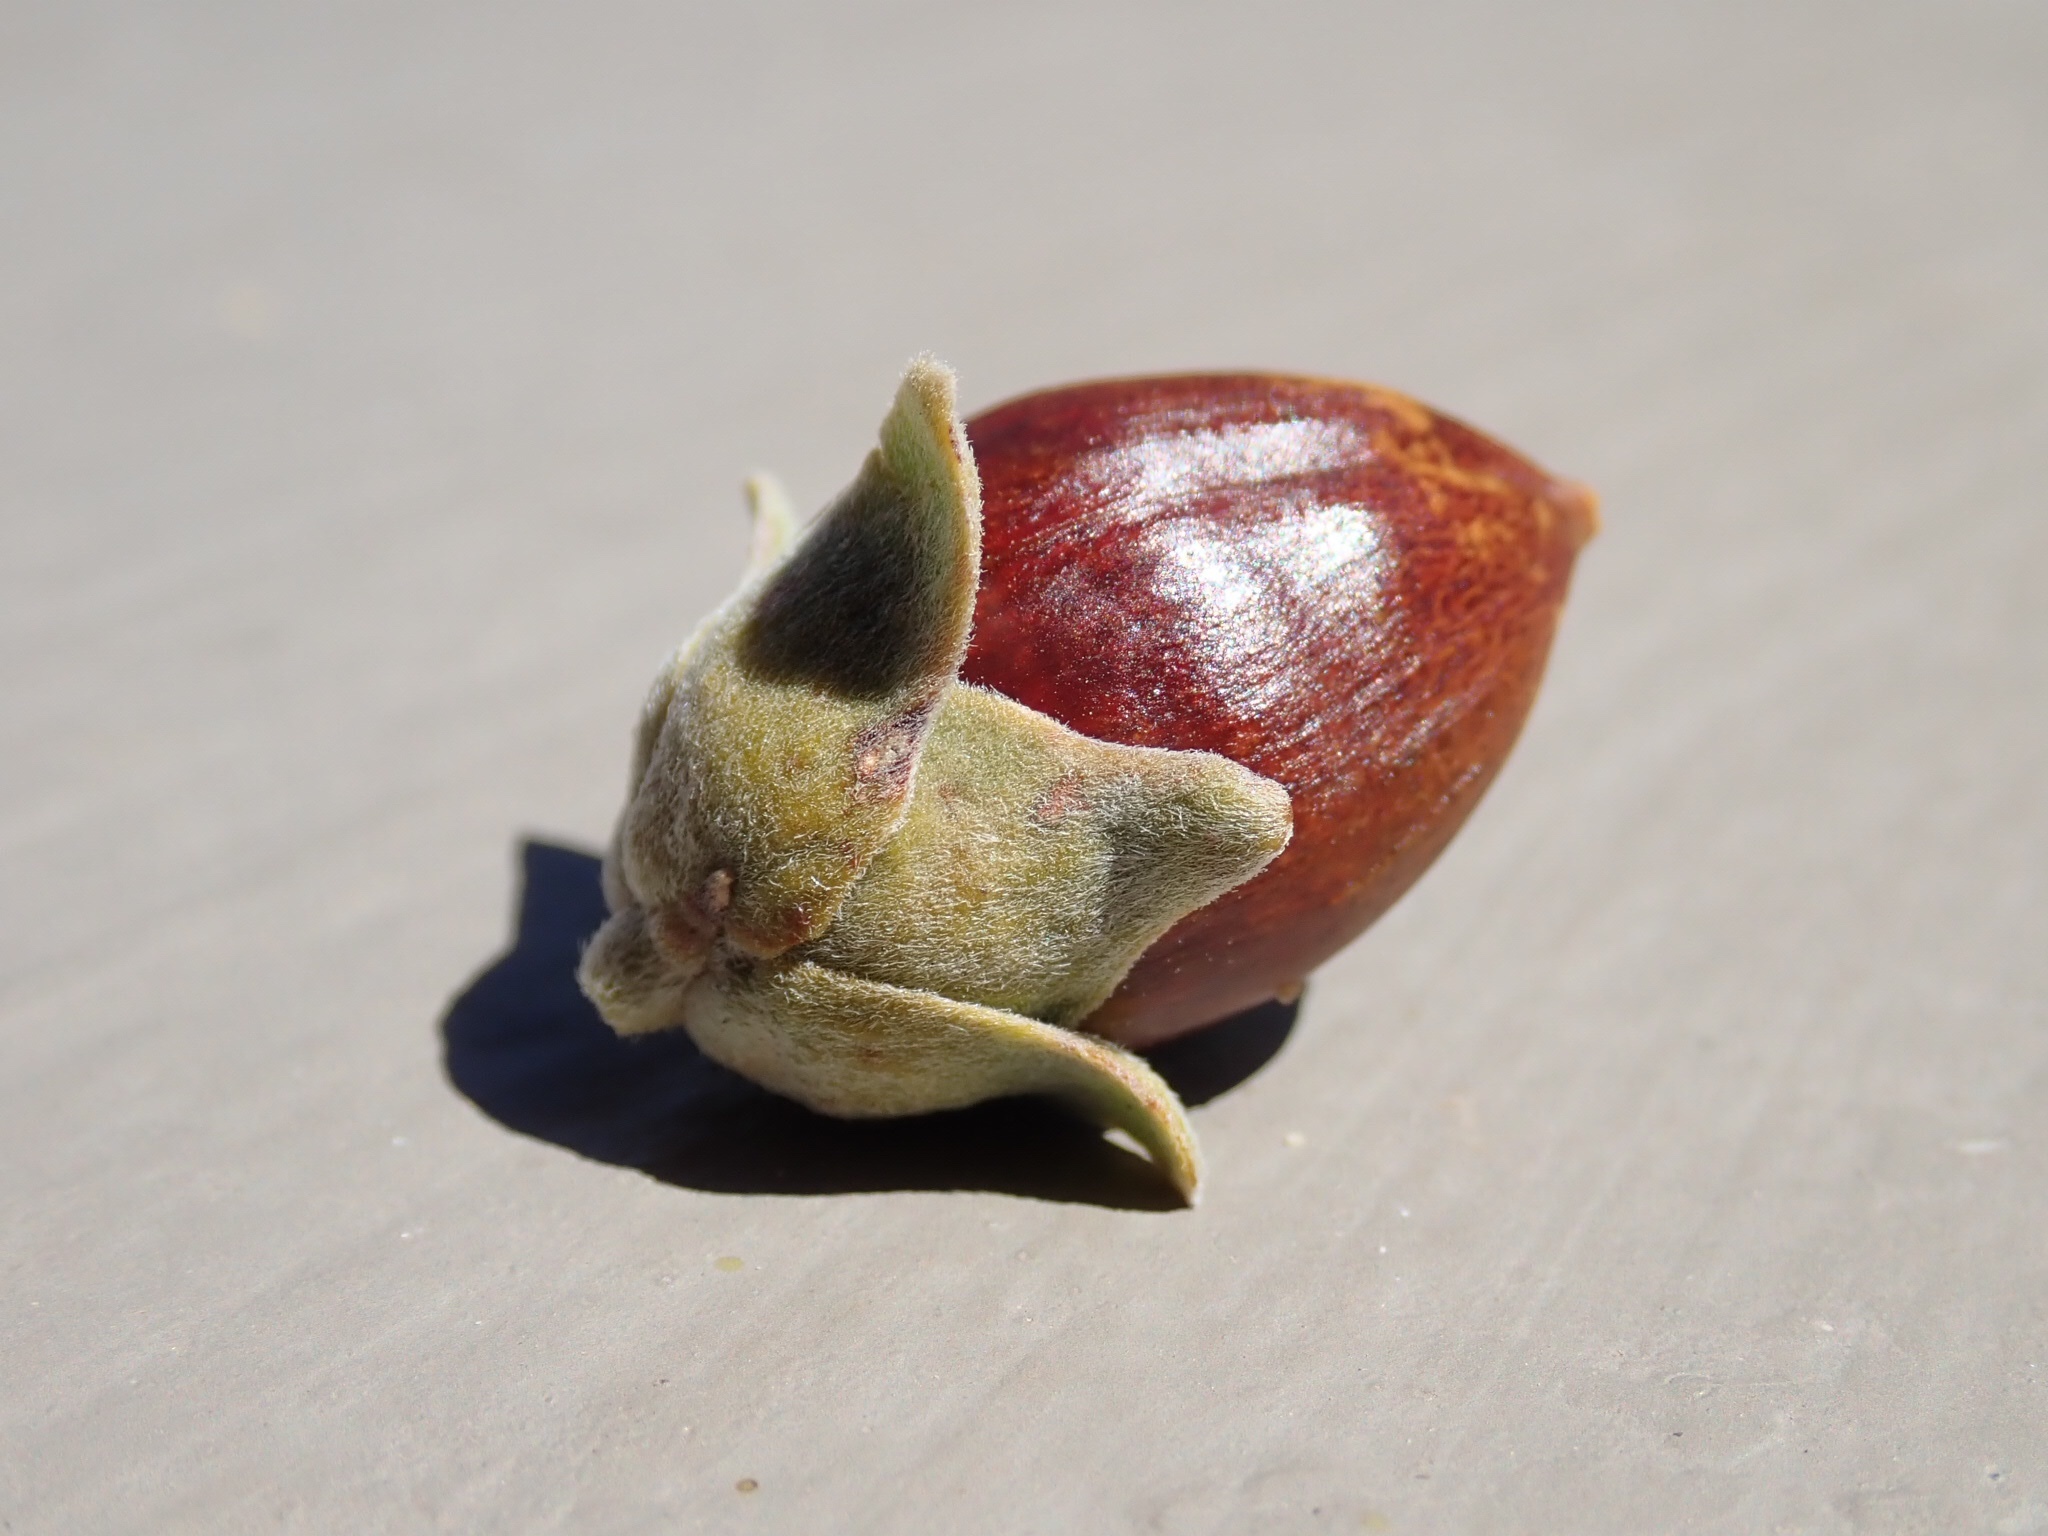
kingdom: Plantae
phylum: Tracheophyta
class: Magnoliopsida
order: Caryophyllales
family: Simmondsiaceae
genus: Simmondsia
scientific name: Simmondsia chinensis
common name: Jojoba
